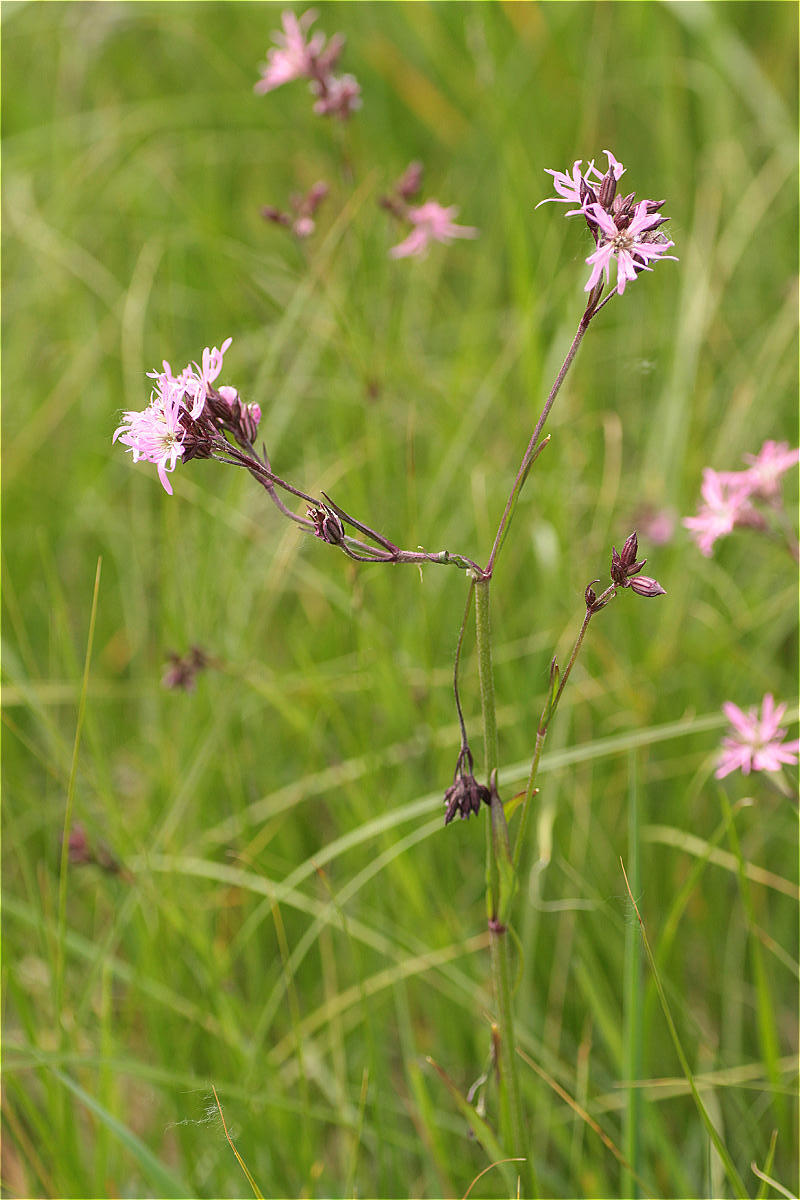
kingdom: Plantae
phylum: Tracheophyta
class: Magnoliopsida
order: Caryophyllales
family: Caryophyllaceae
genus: Silene
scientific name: Silene flos-cuculi
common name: Ragged-robin
